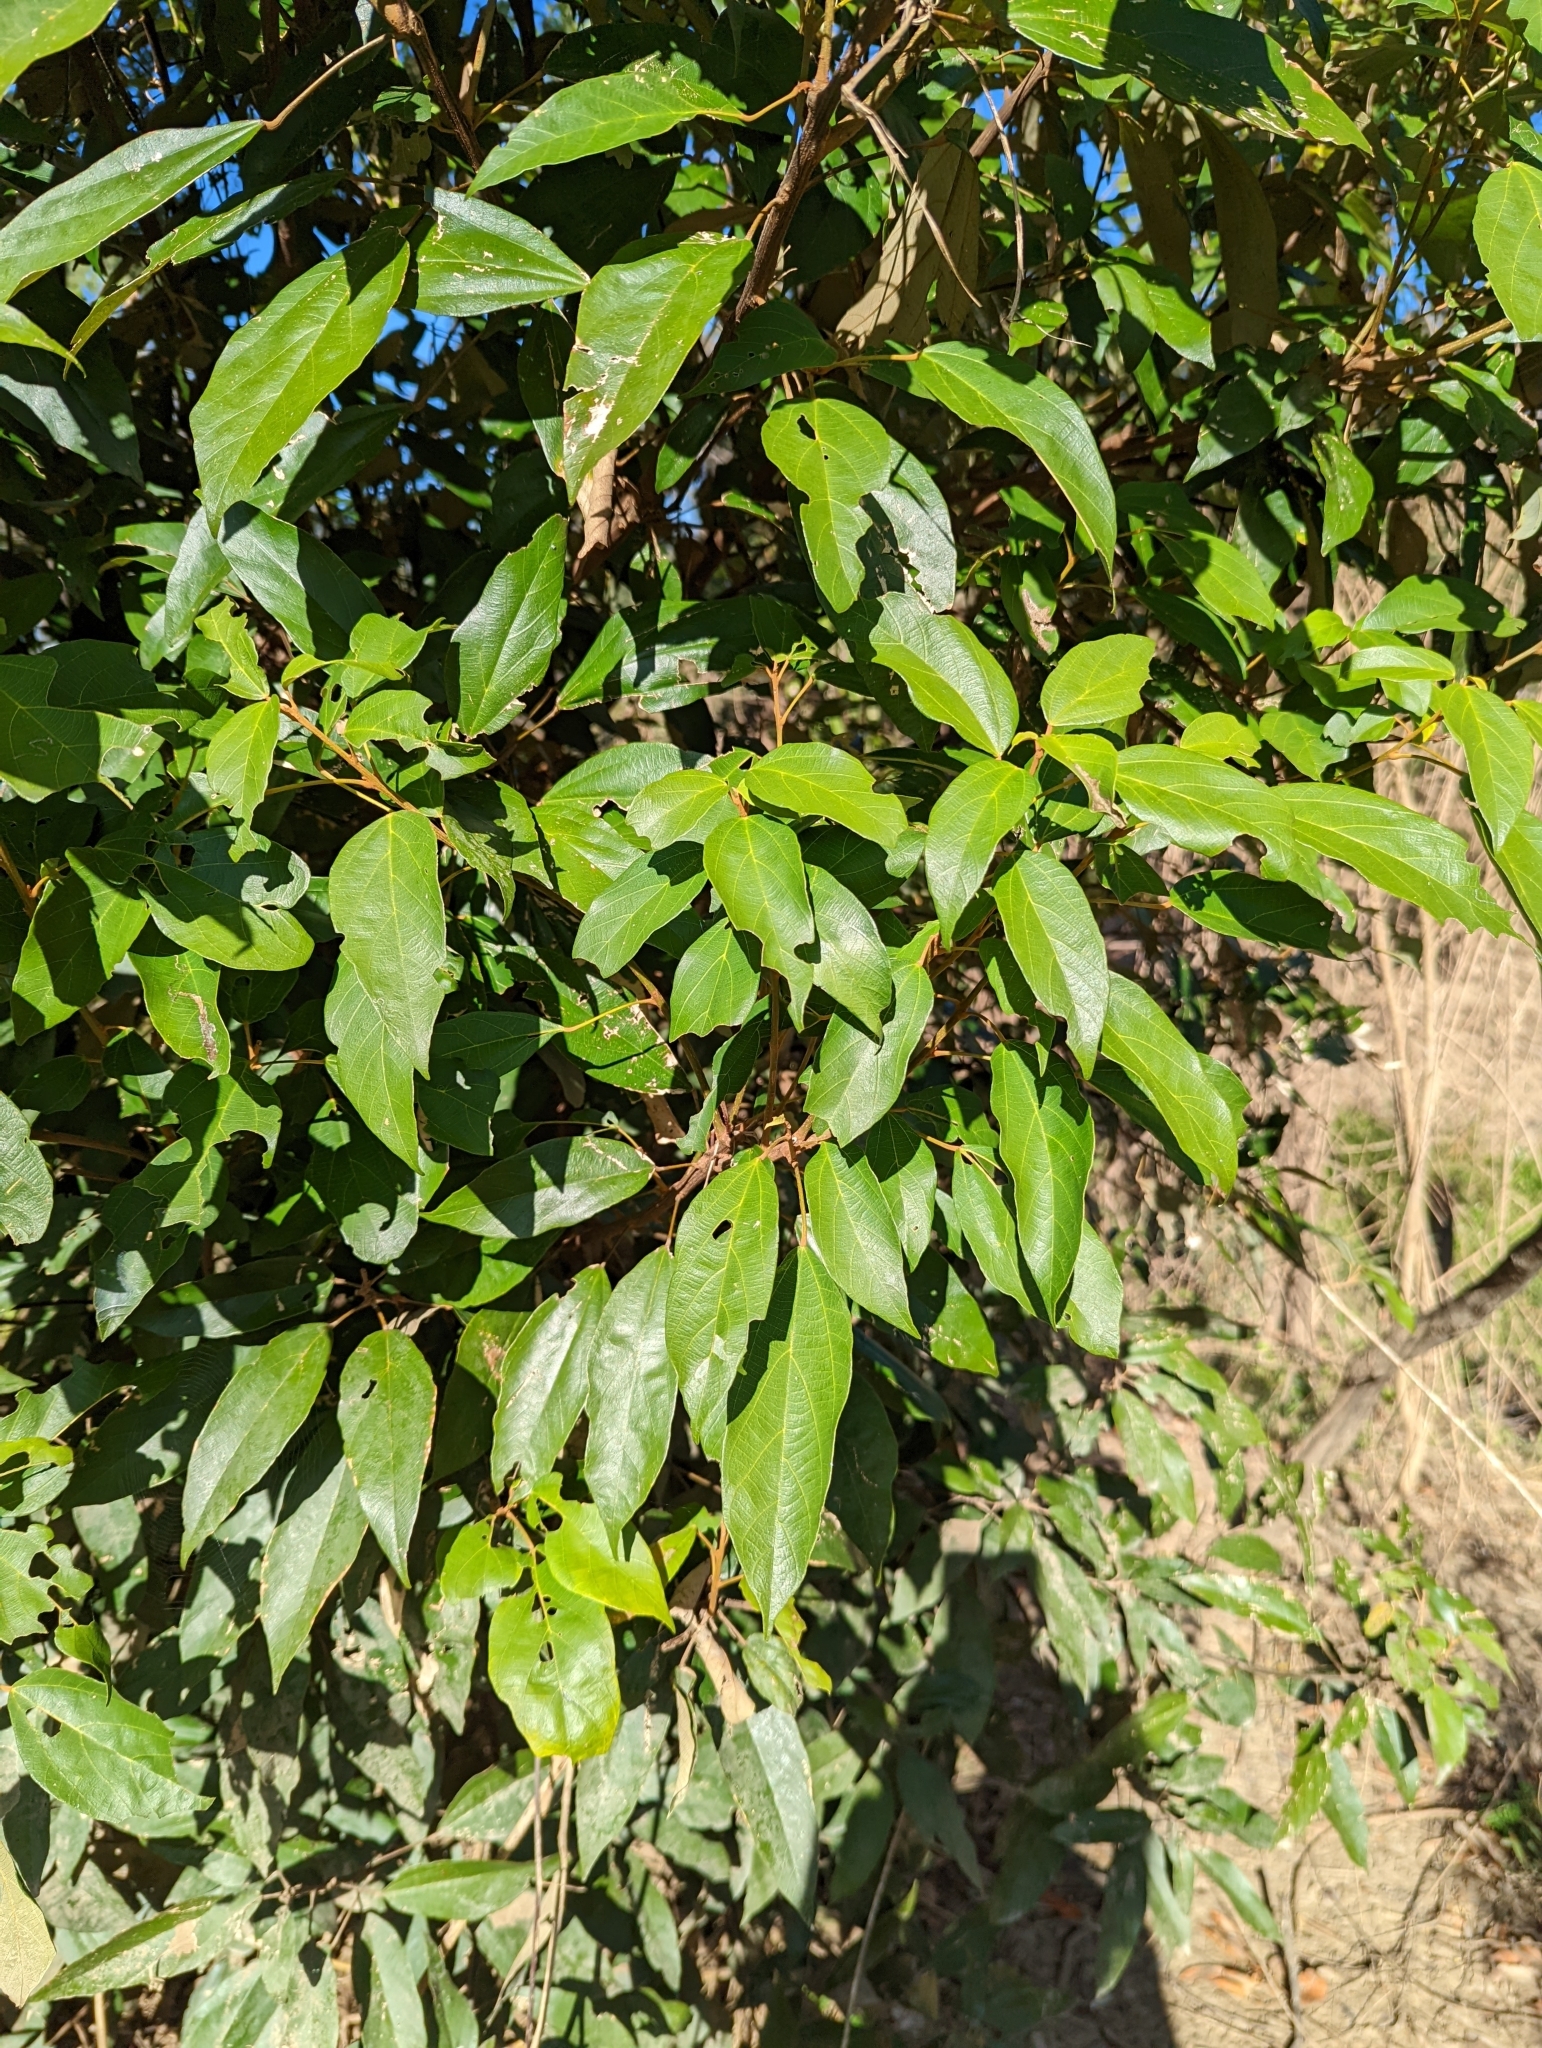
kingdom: Plantae
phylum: Tracheophyta
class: Magnoliopsida
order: Malpighiales
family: Euphorbiaceae
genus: Mallotus
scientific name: Mallotus philippensis
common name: Kamala tree
